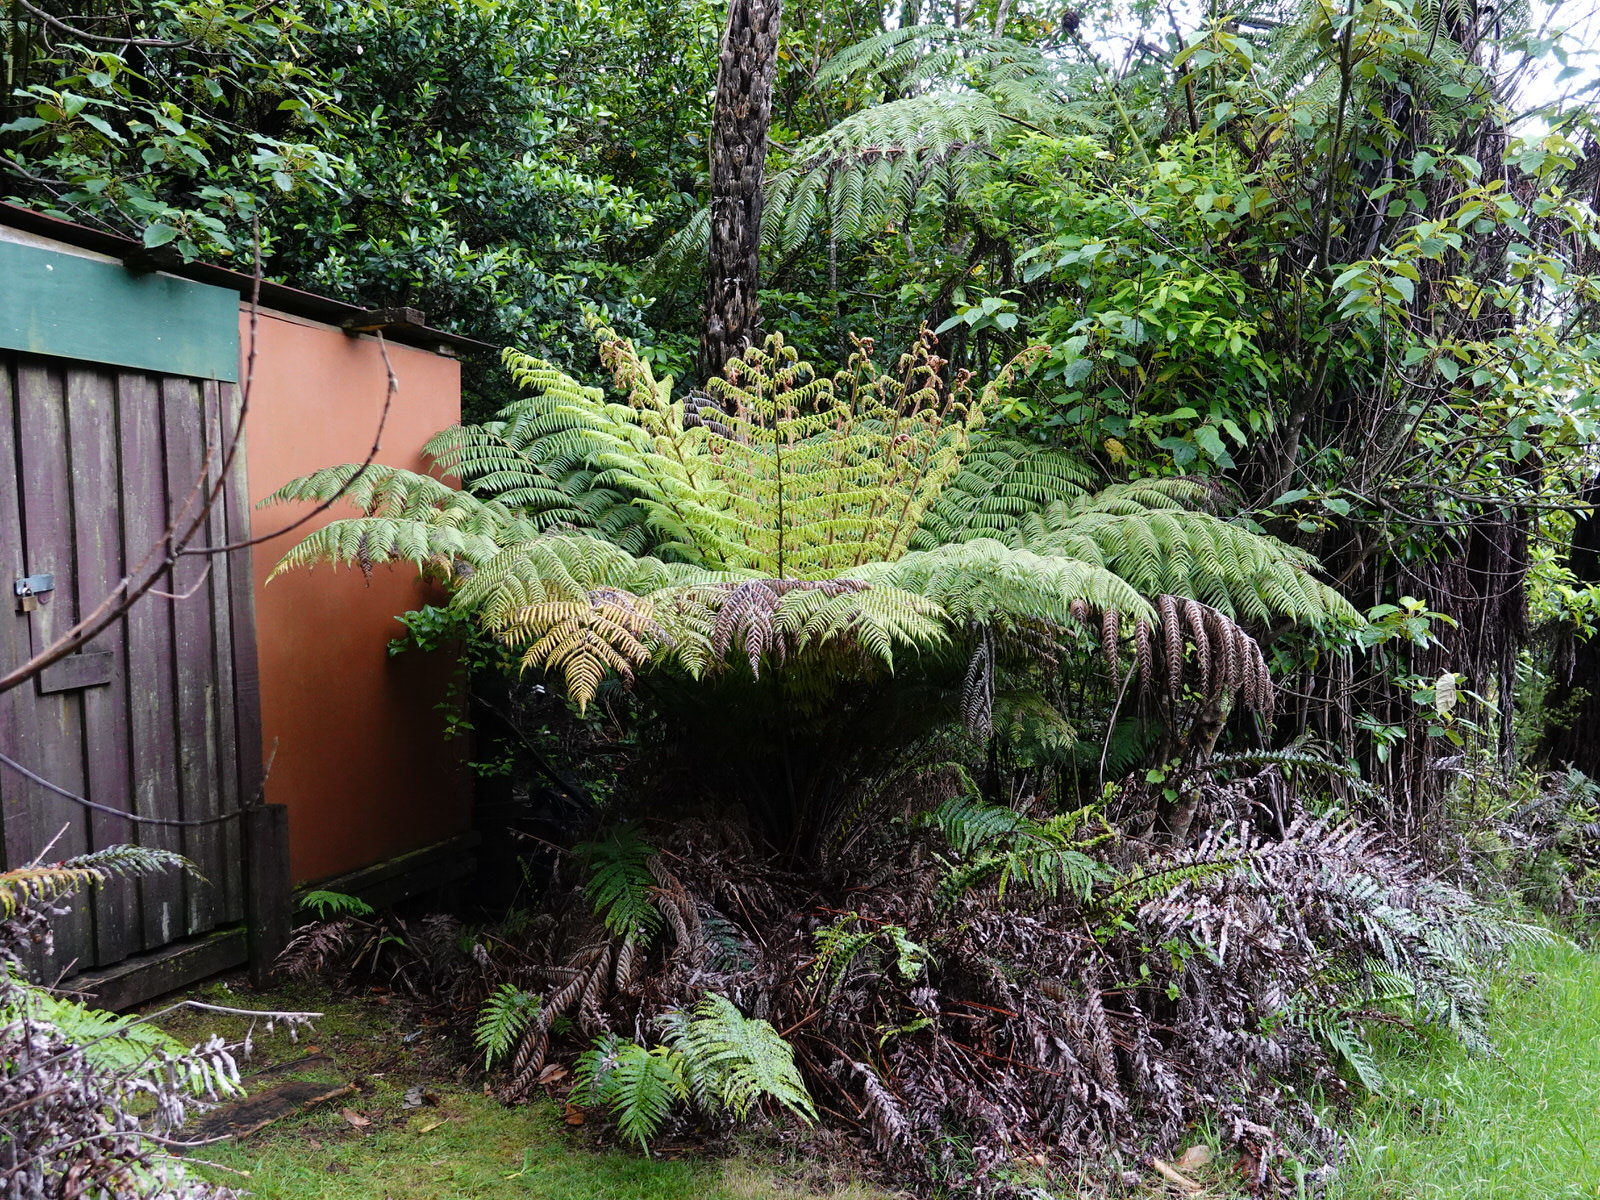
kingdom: Plantae
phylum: Tracheophyta
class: Polypodiopsida
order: Cyatheales
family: Cyatheaceae
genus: Alsophila
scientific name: Alsophila dealbata
